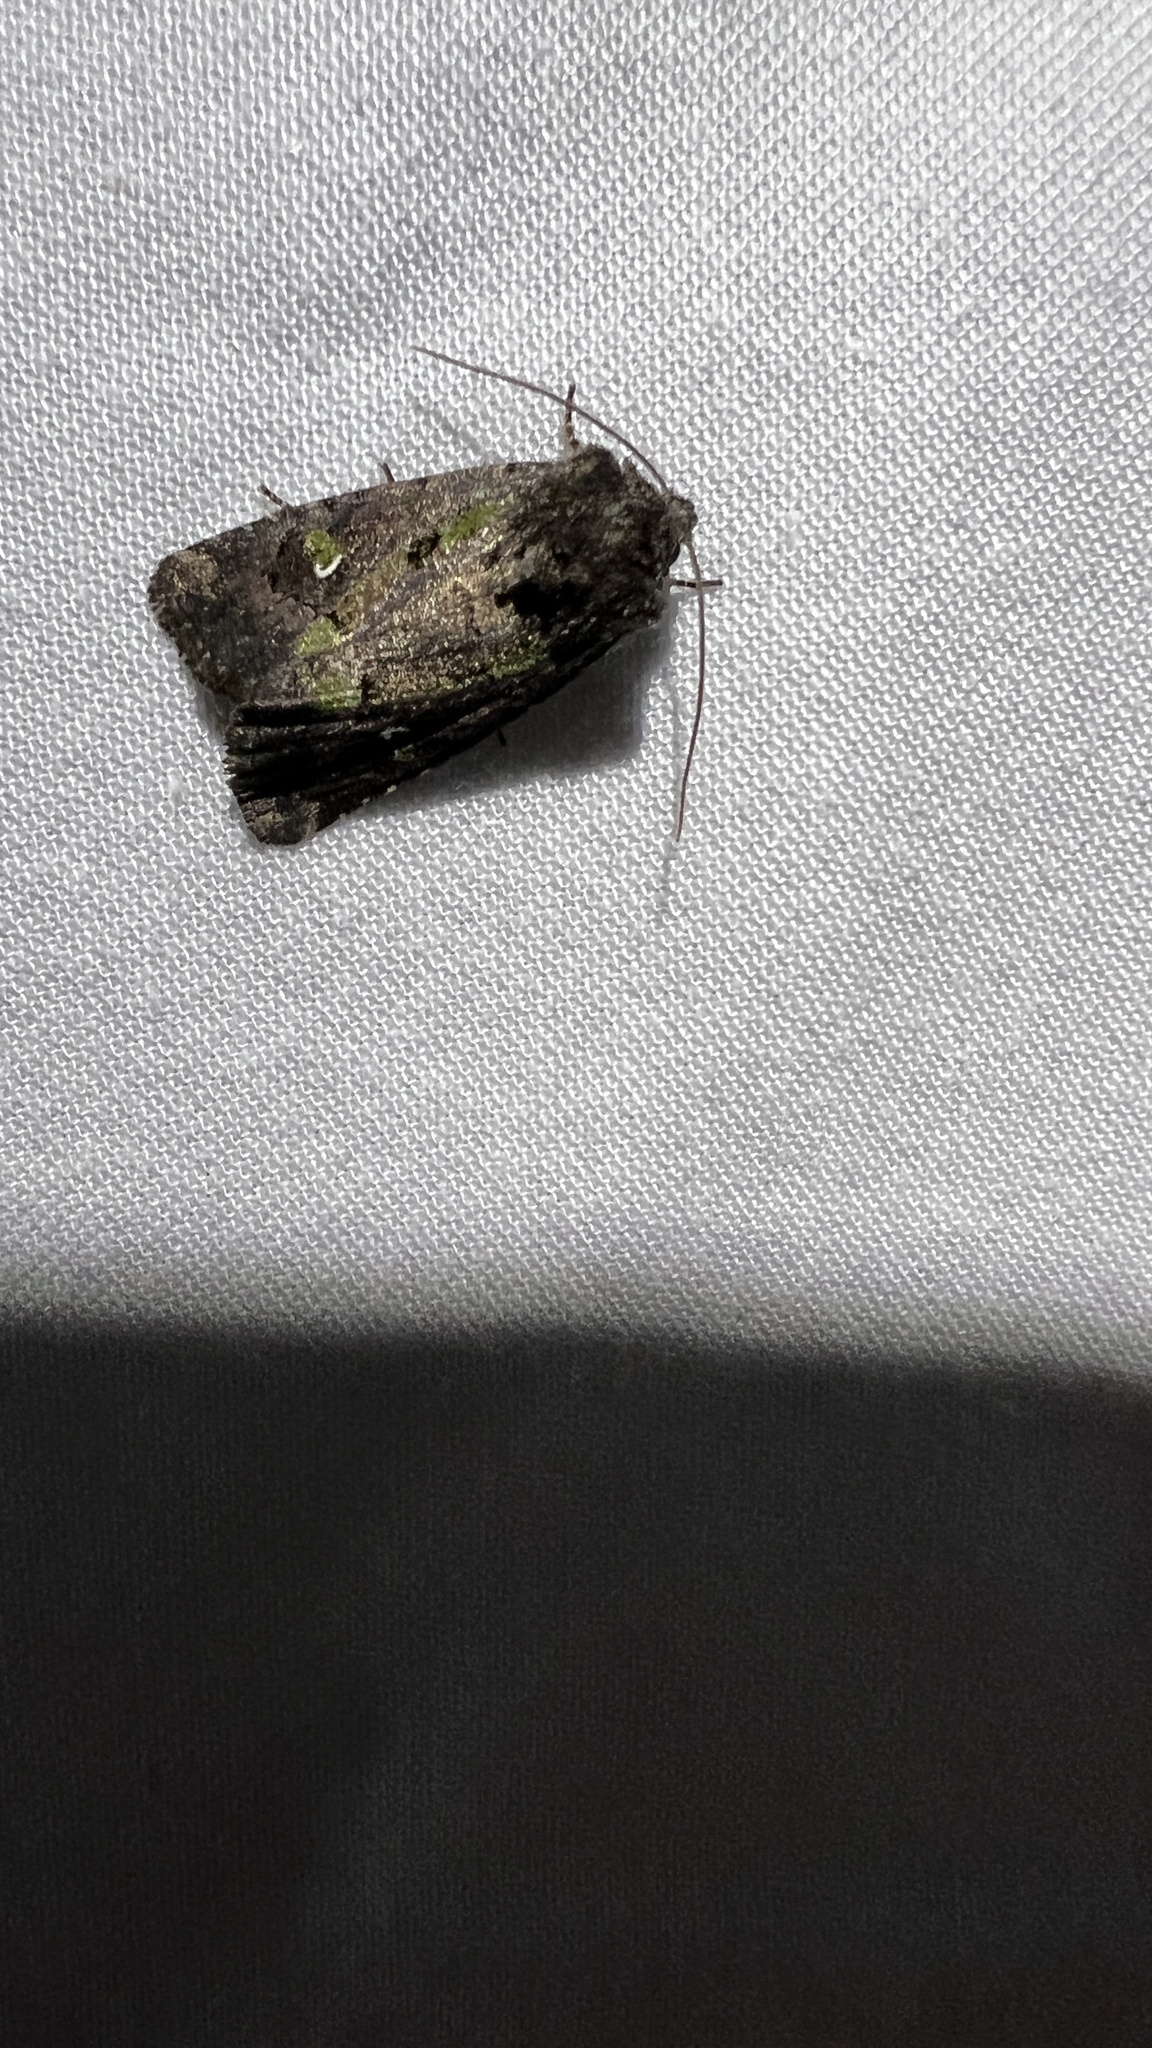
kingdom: Animalia
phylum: Arthropoda
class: Insecta
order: Lepidoptera
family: Noctuidae
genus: Lacinipolia
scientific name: Lacinipolia renigera
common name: Kidney-spotted minor
